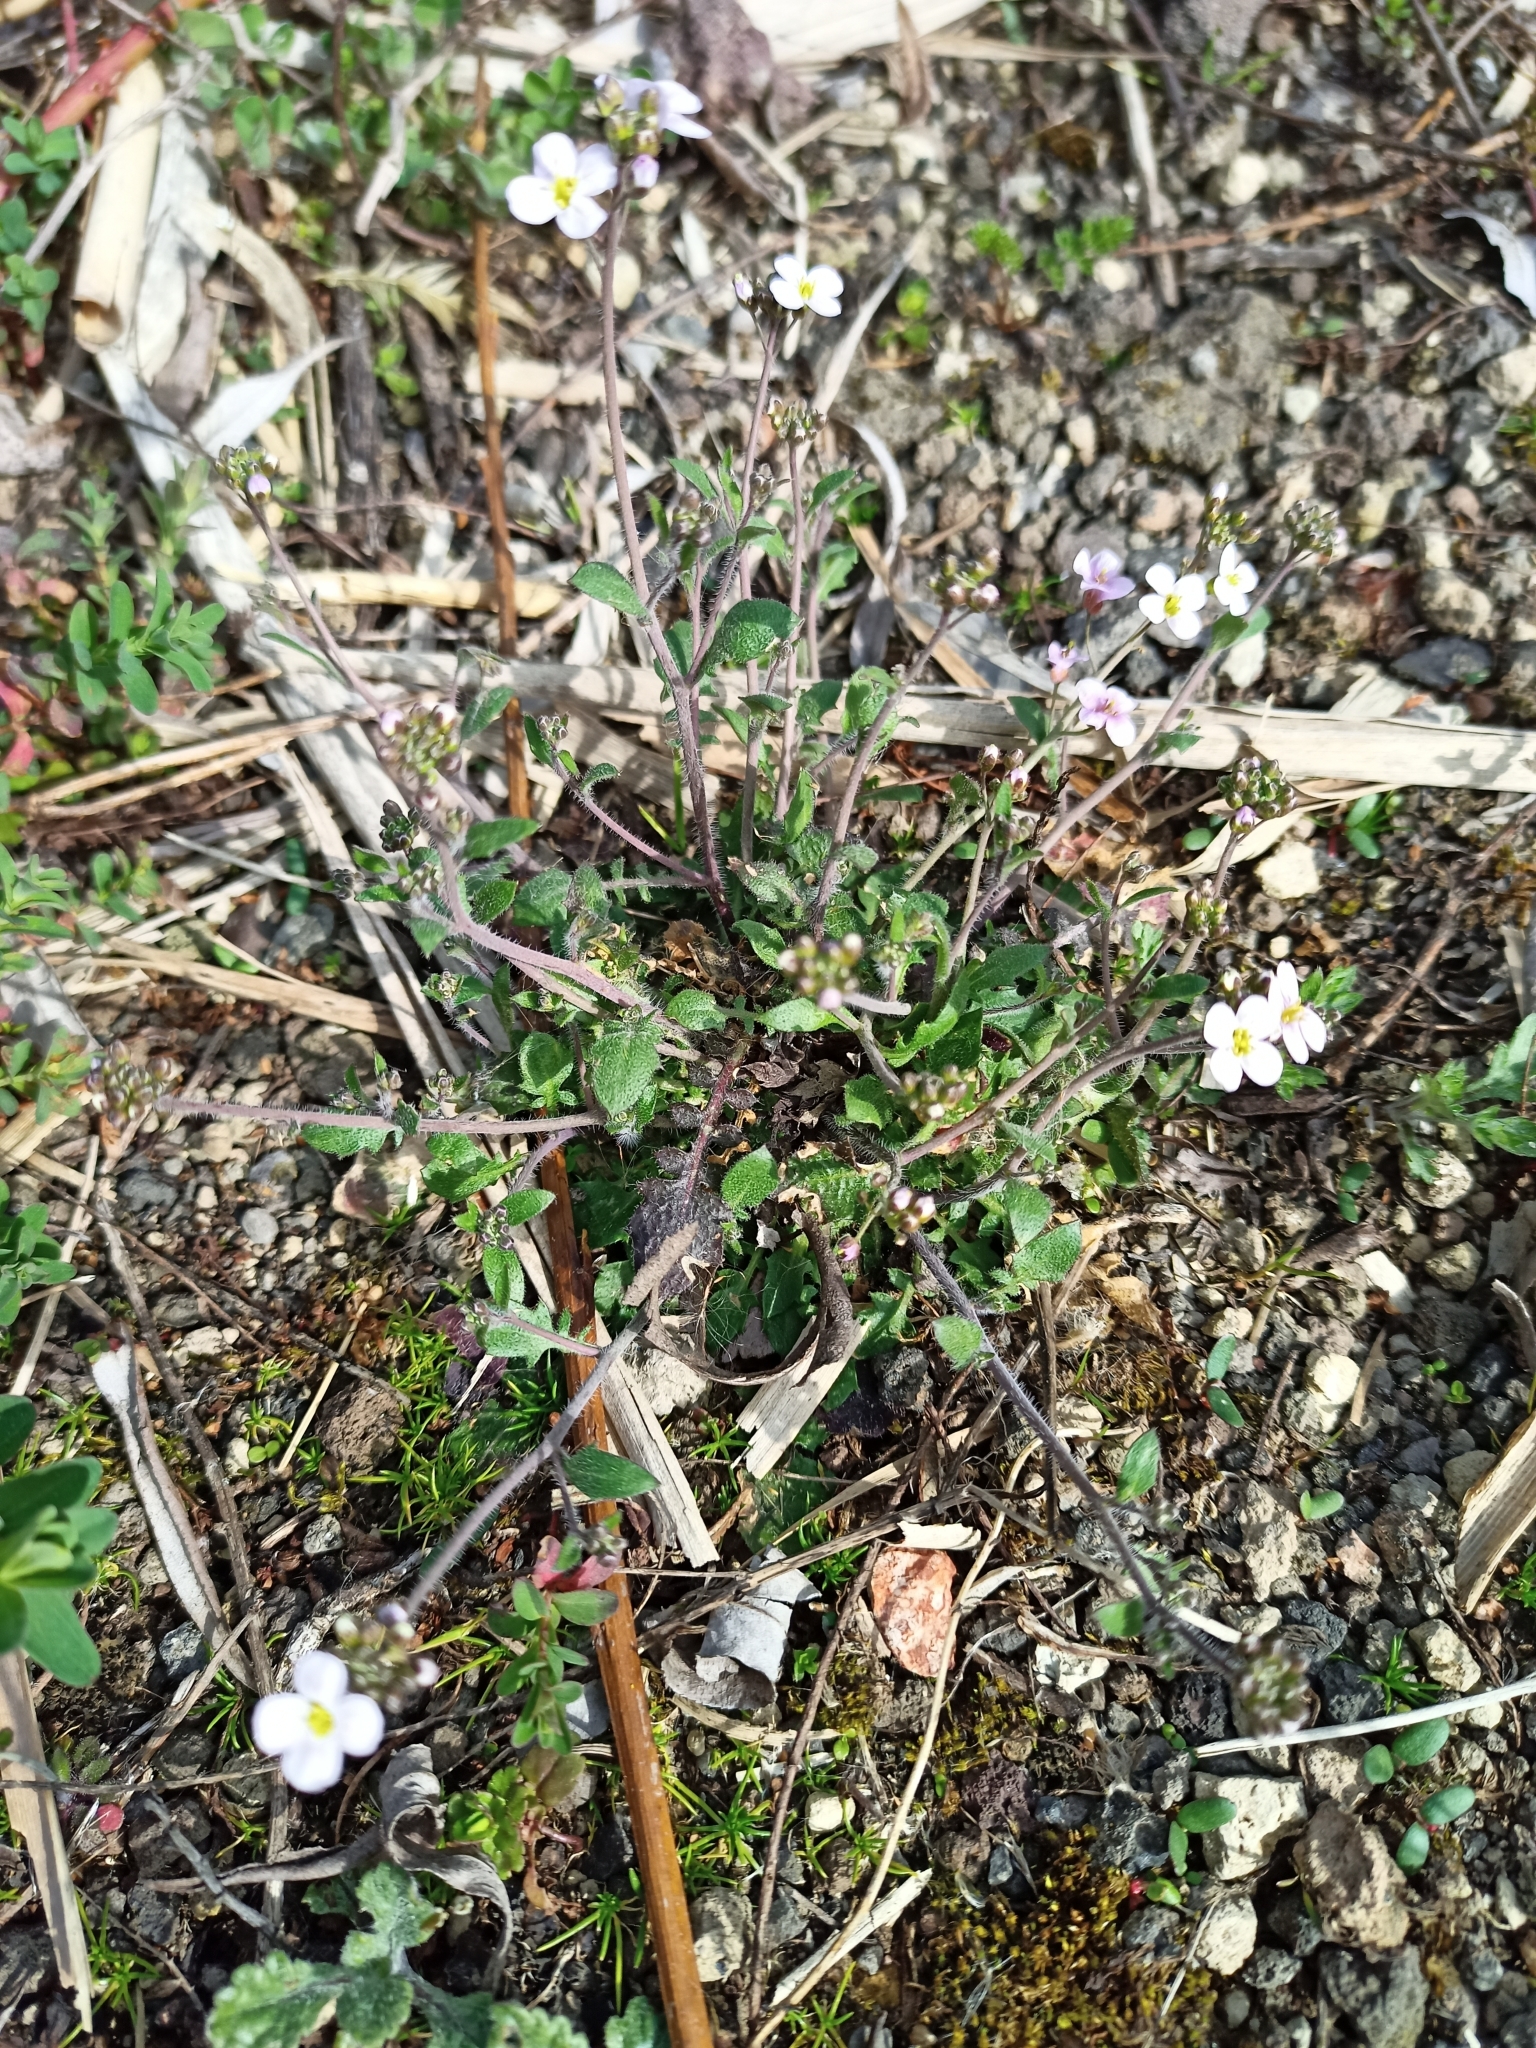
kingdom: Plantae
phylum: Tracheophyta
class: Magnoliopsida
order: Brassicales
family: Brassicaceae
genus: Arabidopsis
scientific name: Arabidopsis arenosa
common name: Sand rock-cress
